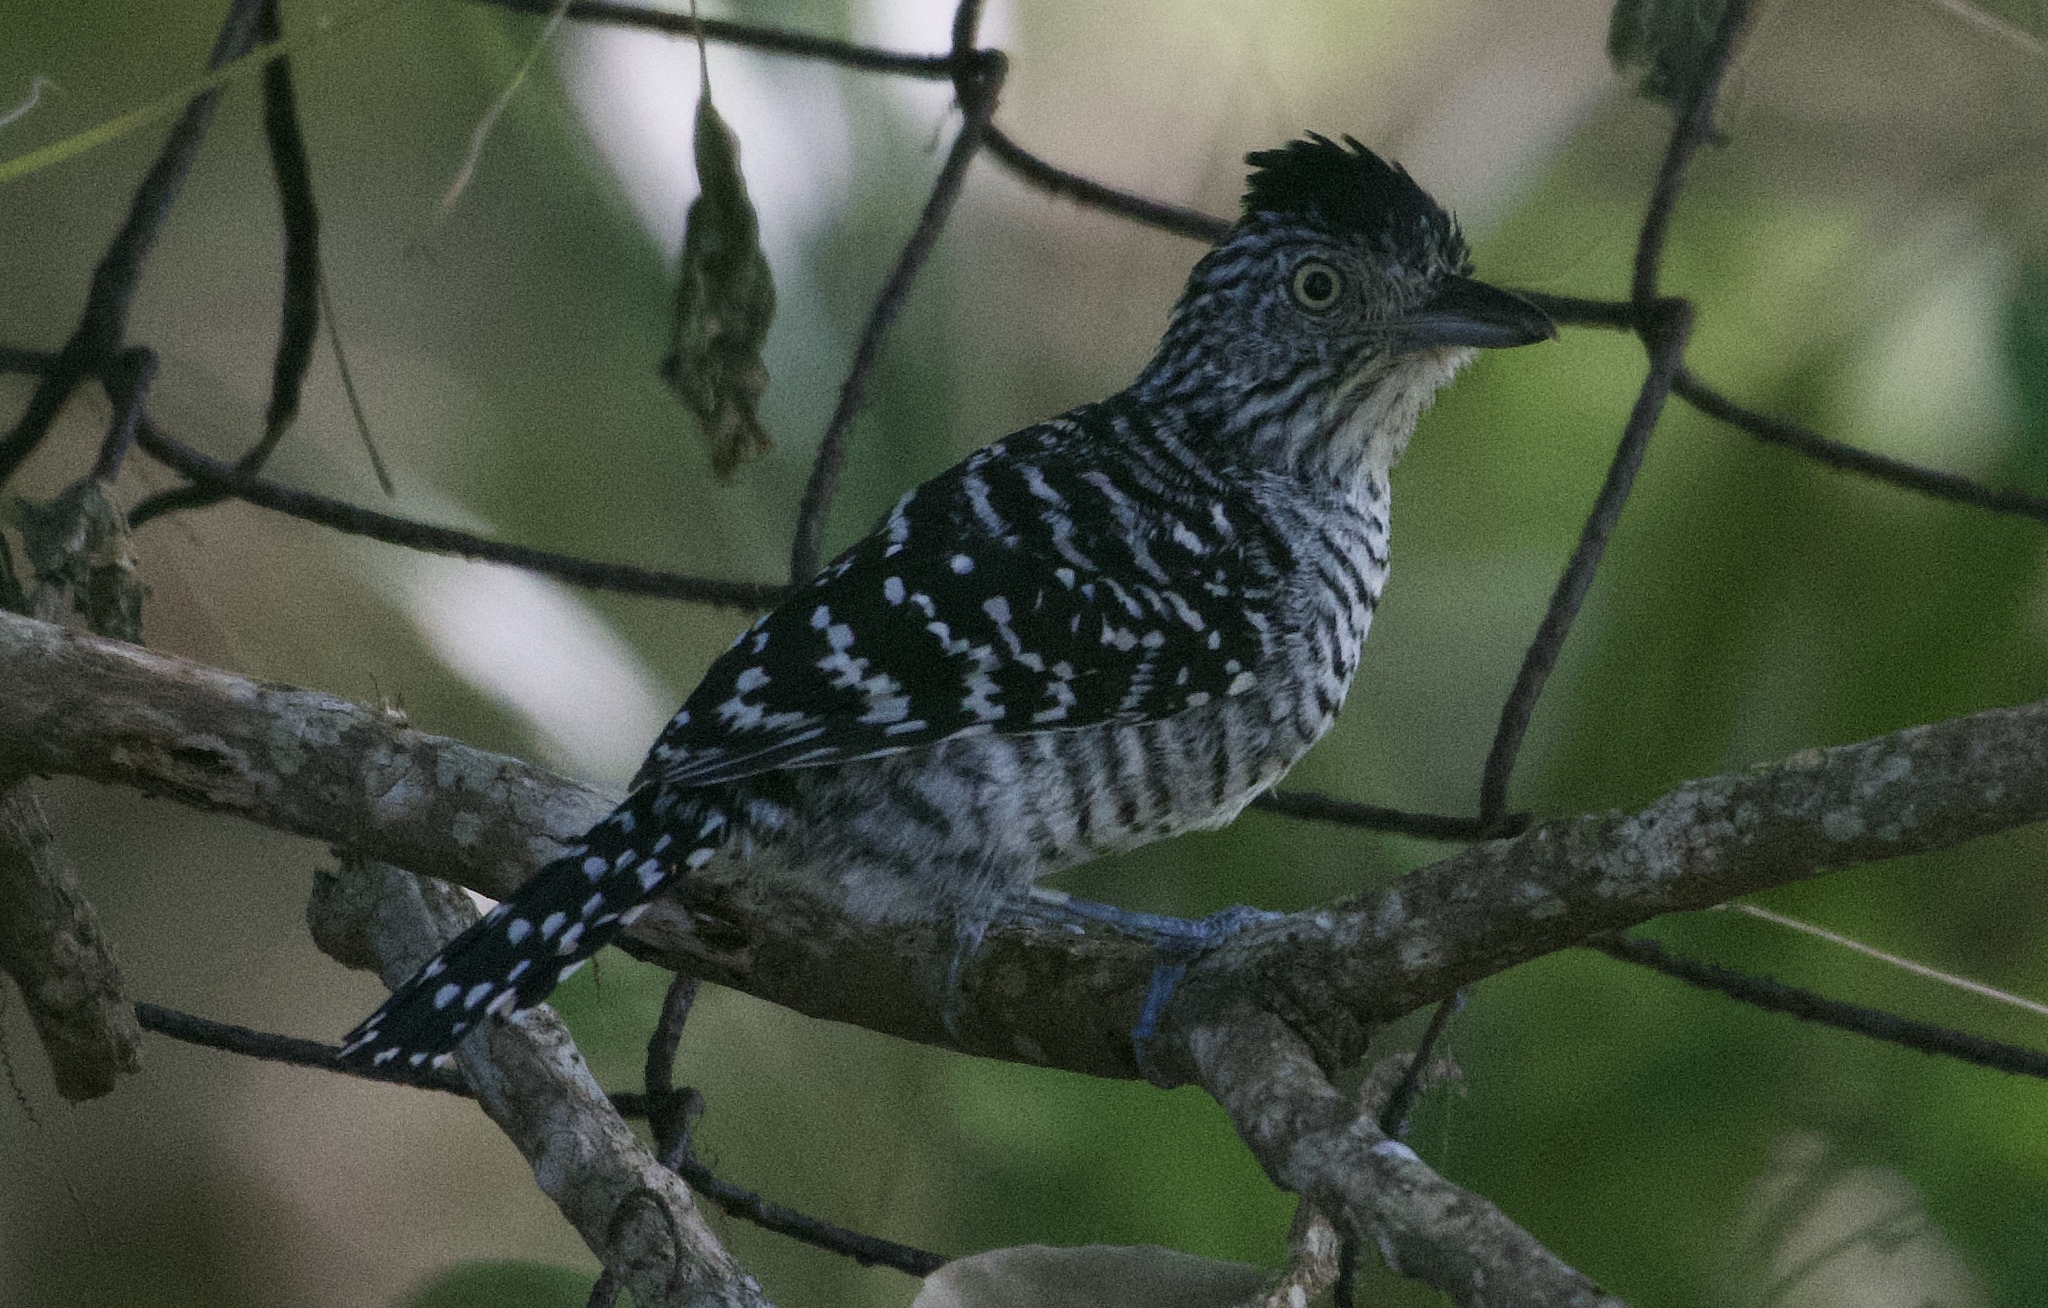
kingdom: Animalia
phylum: Chordata
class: Aves
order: Passeriformes
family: Thamnophilidae
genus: Thamnophilus
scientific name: Thamnophilus doliatus
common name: Barred antshrike
